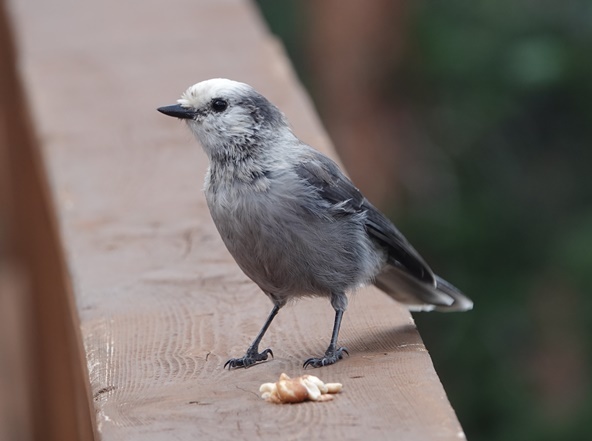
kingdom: Animalia
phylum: Chordata
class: Aves
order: Passeriformes
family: Corvidae
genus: Perisoreus
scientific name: Perisoreus canadensis
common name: Gray jay
